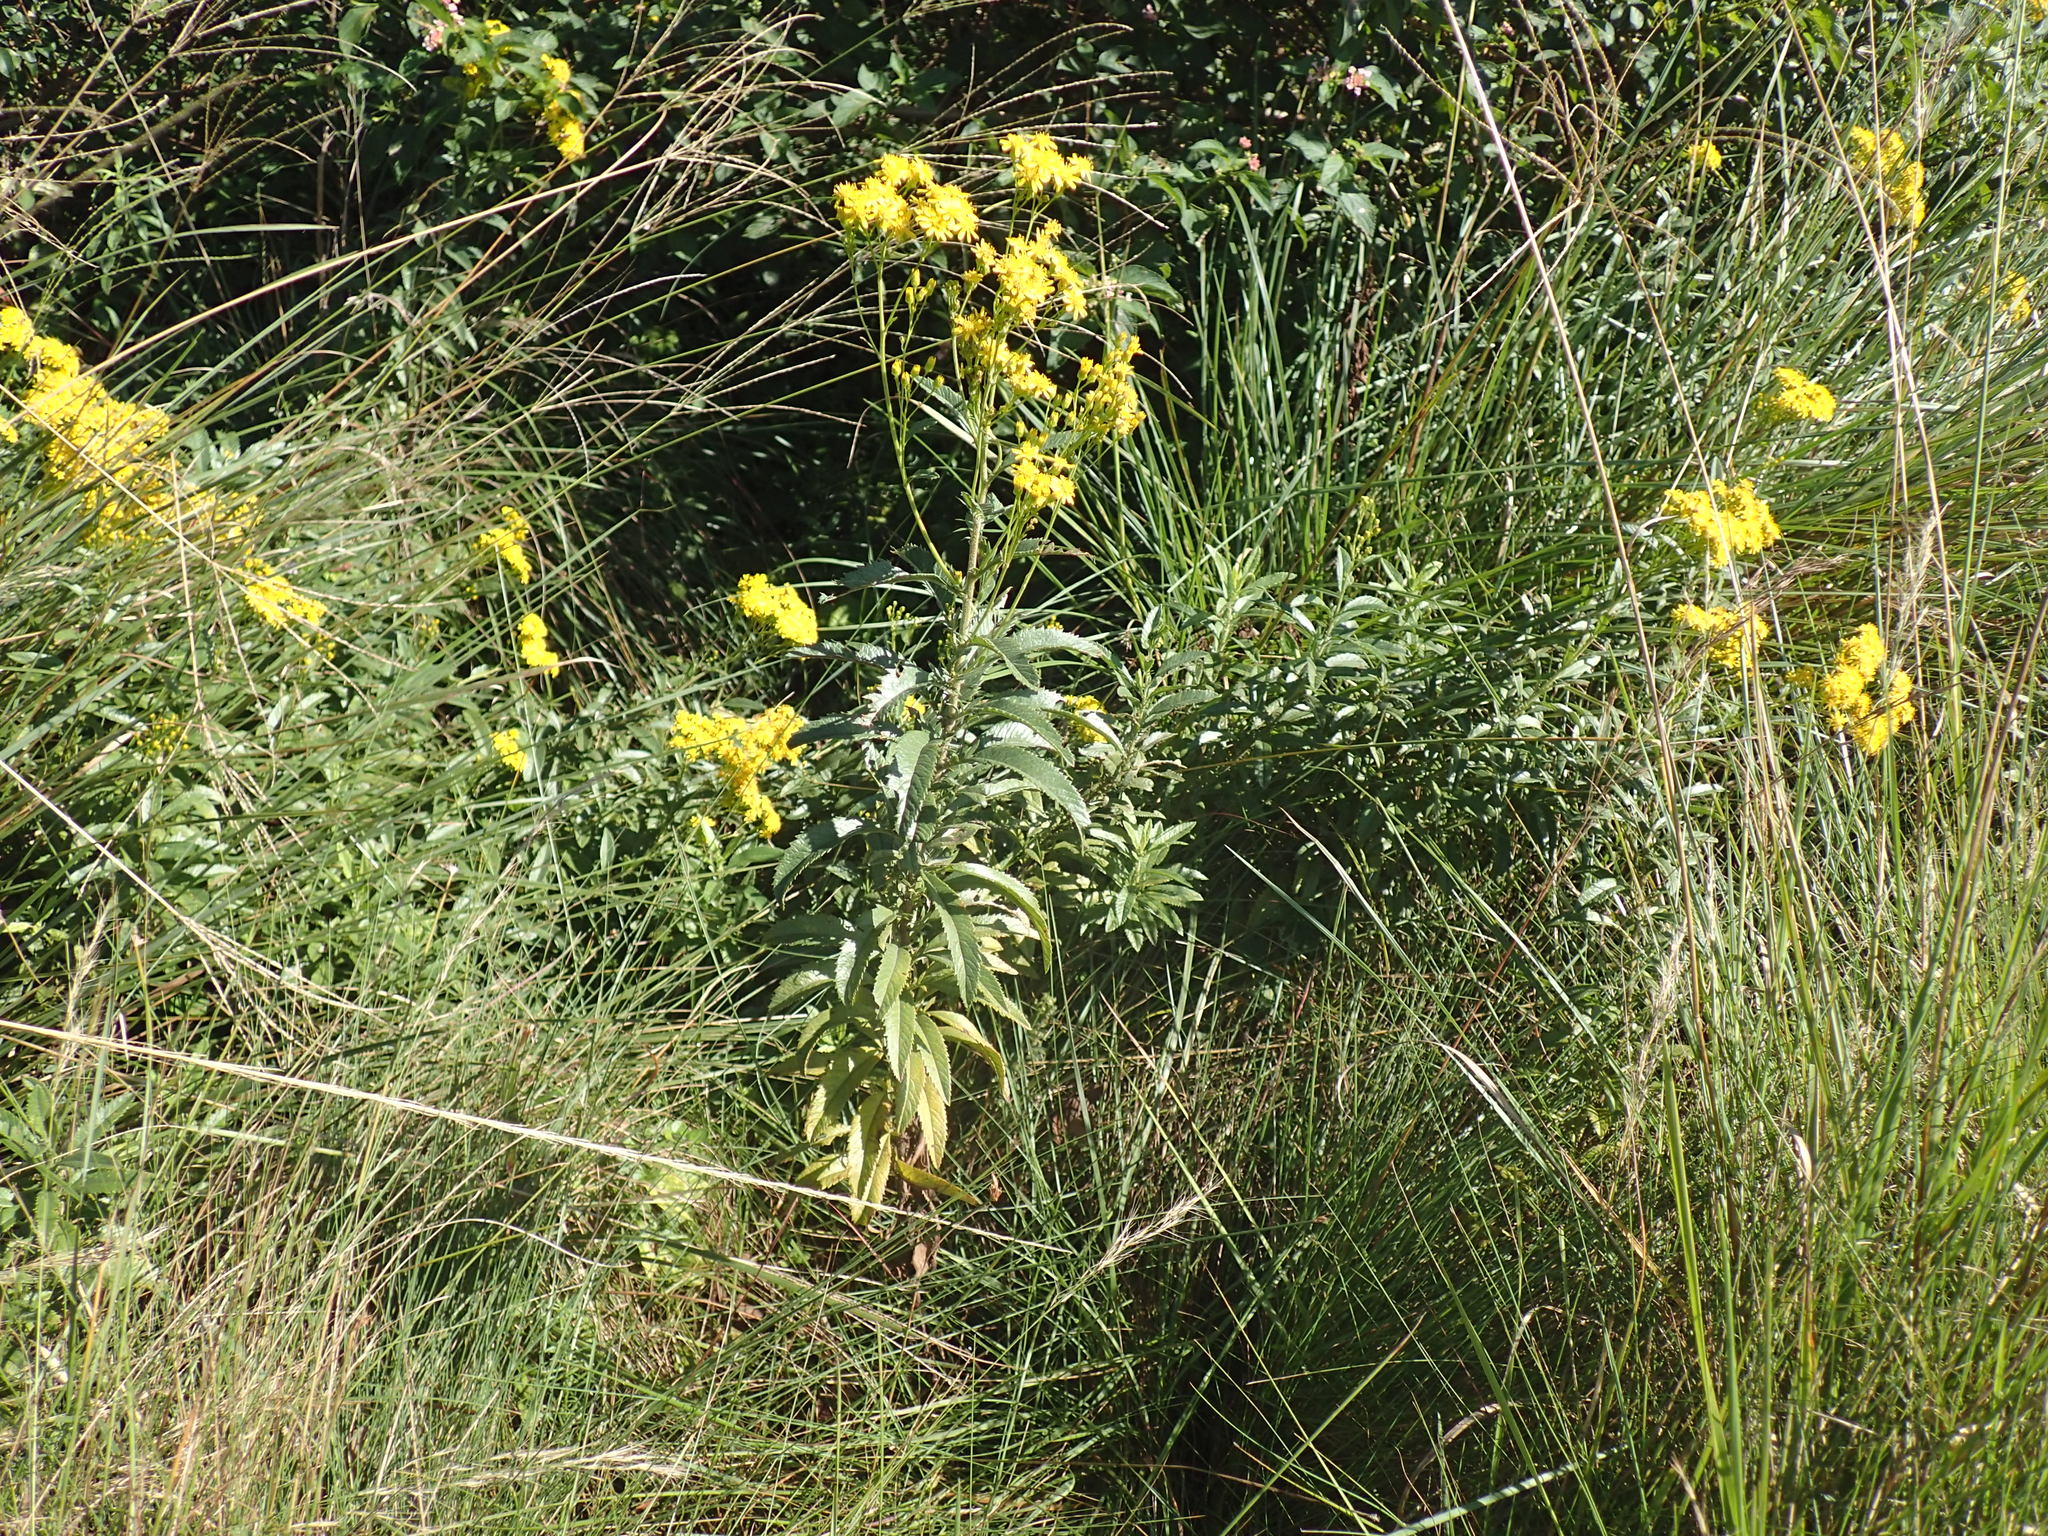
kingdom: Plantae
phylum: Tracheophyta
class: Magnoliopsida
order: Asterales
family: Asteraceae
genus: Senecio
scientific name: Senecio serratuloides
